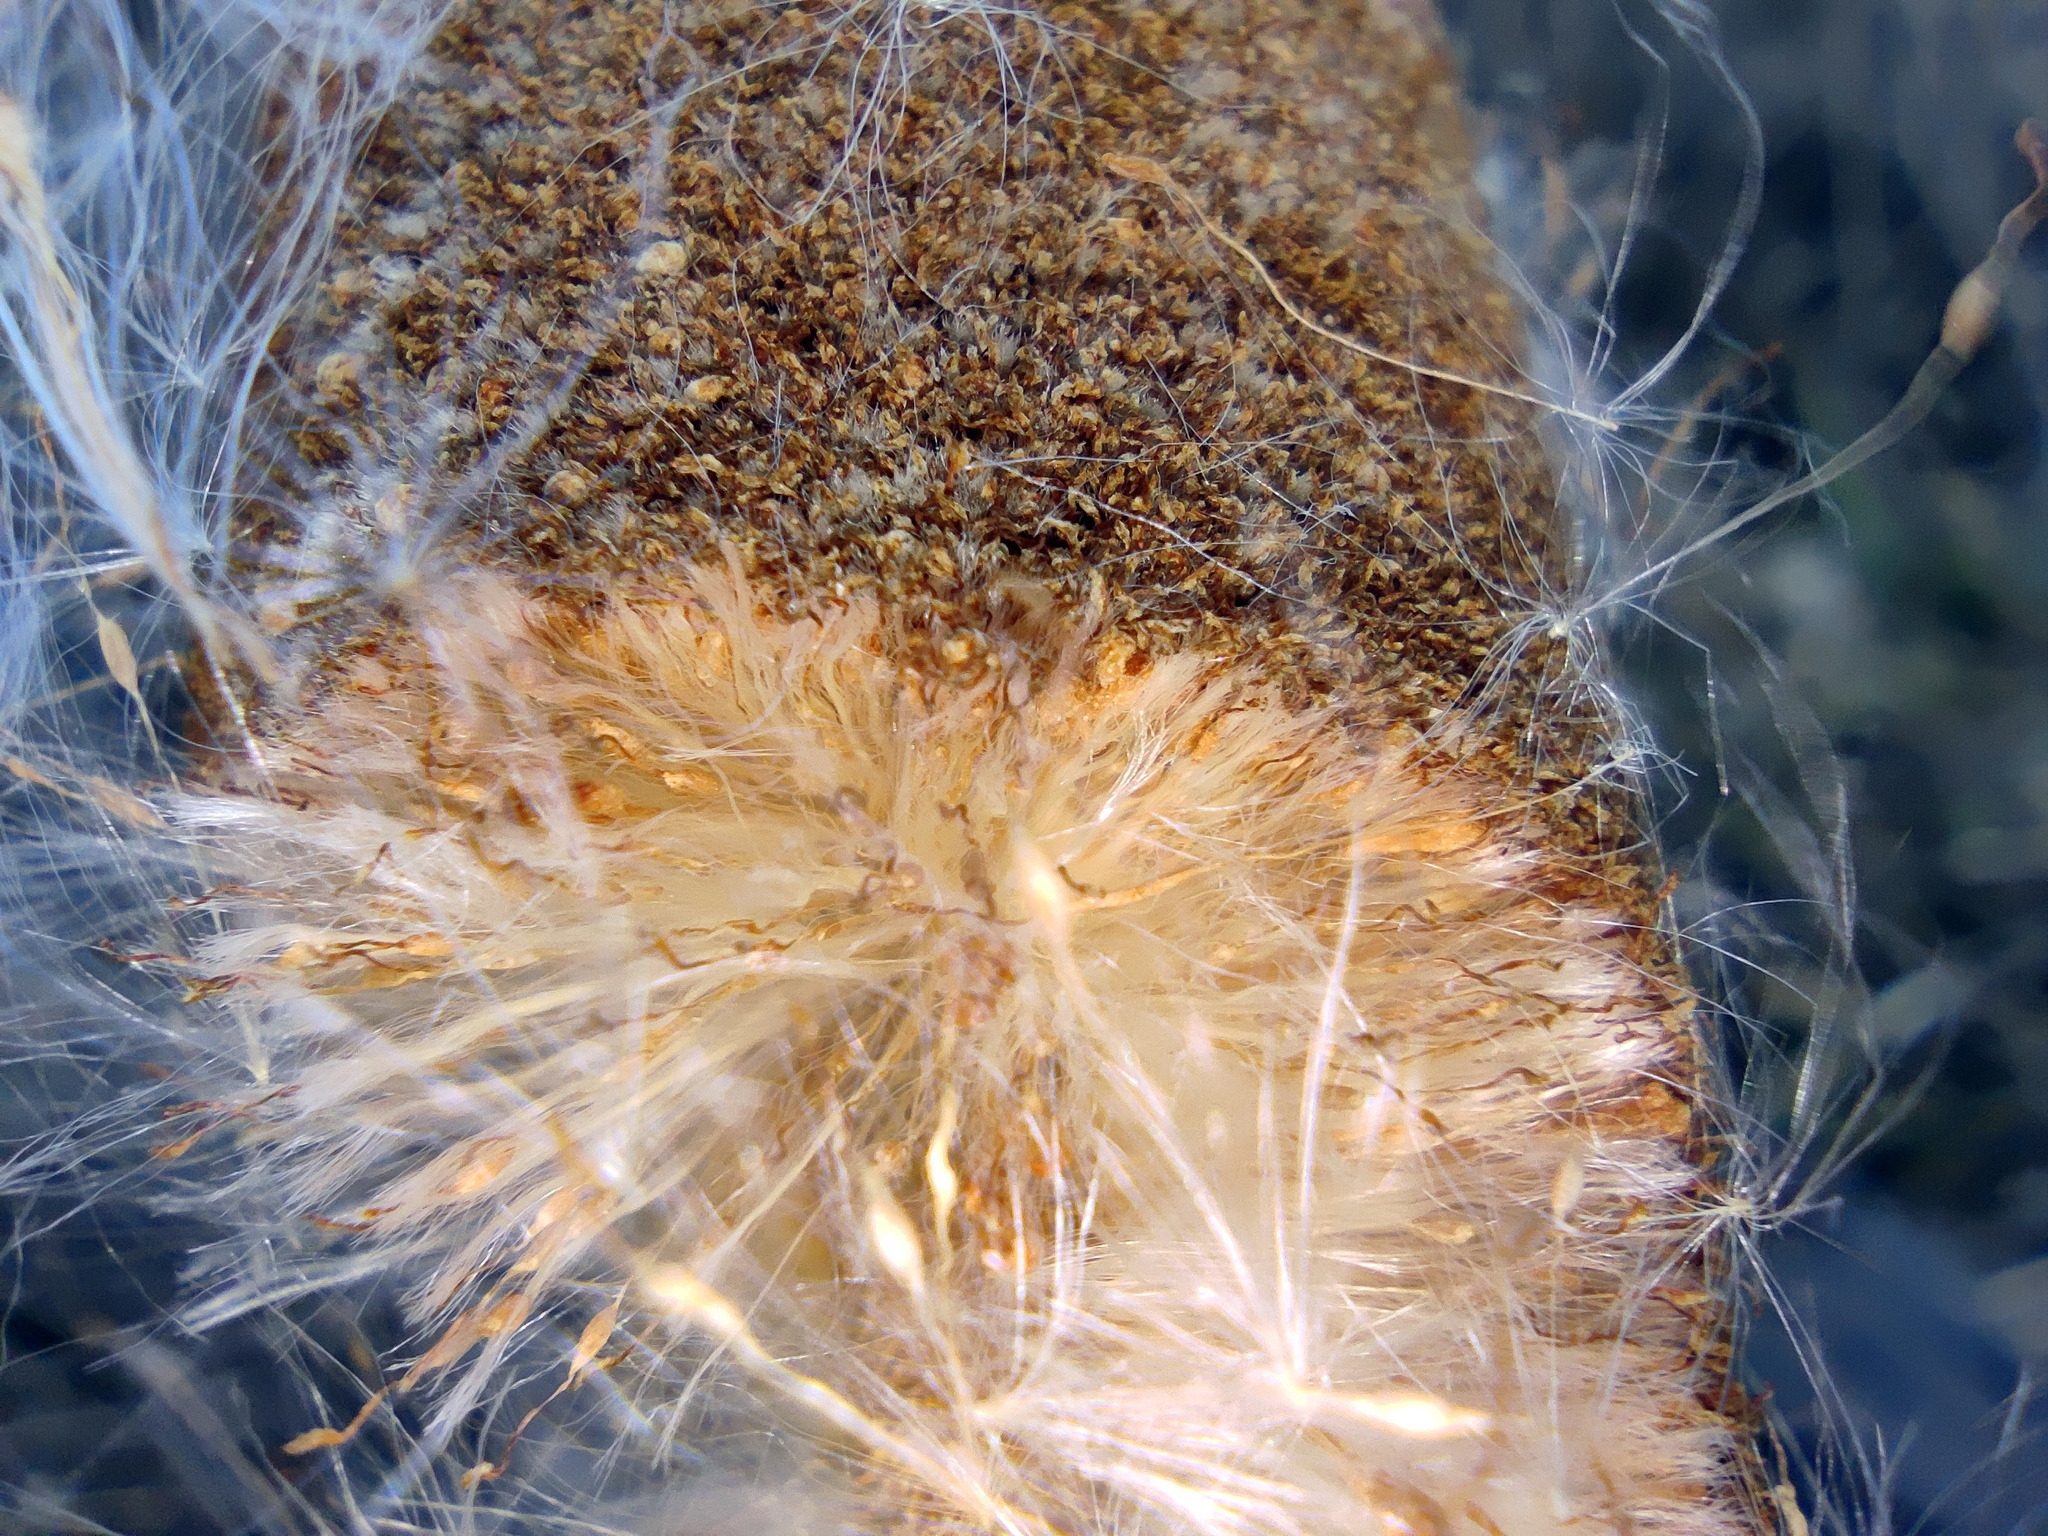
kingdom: Plantae
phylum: Tracheophyta
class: Liliopsida
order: Poales
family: Typhaceae
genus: Typha
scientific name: Typha laxmannii
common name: Laxman’s bulrush
